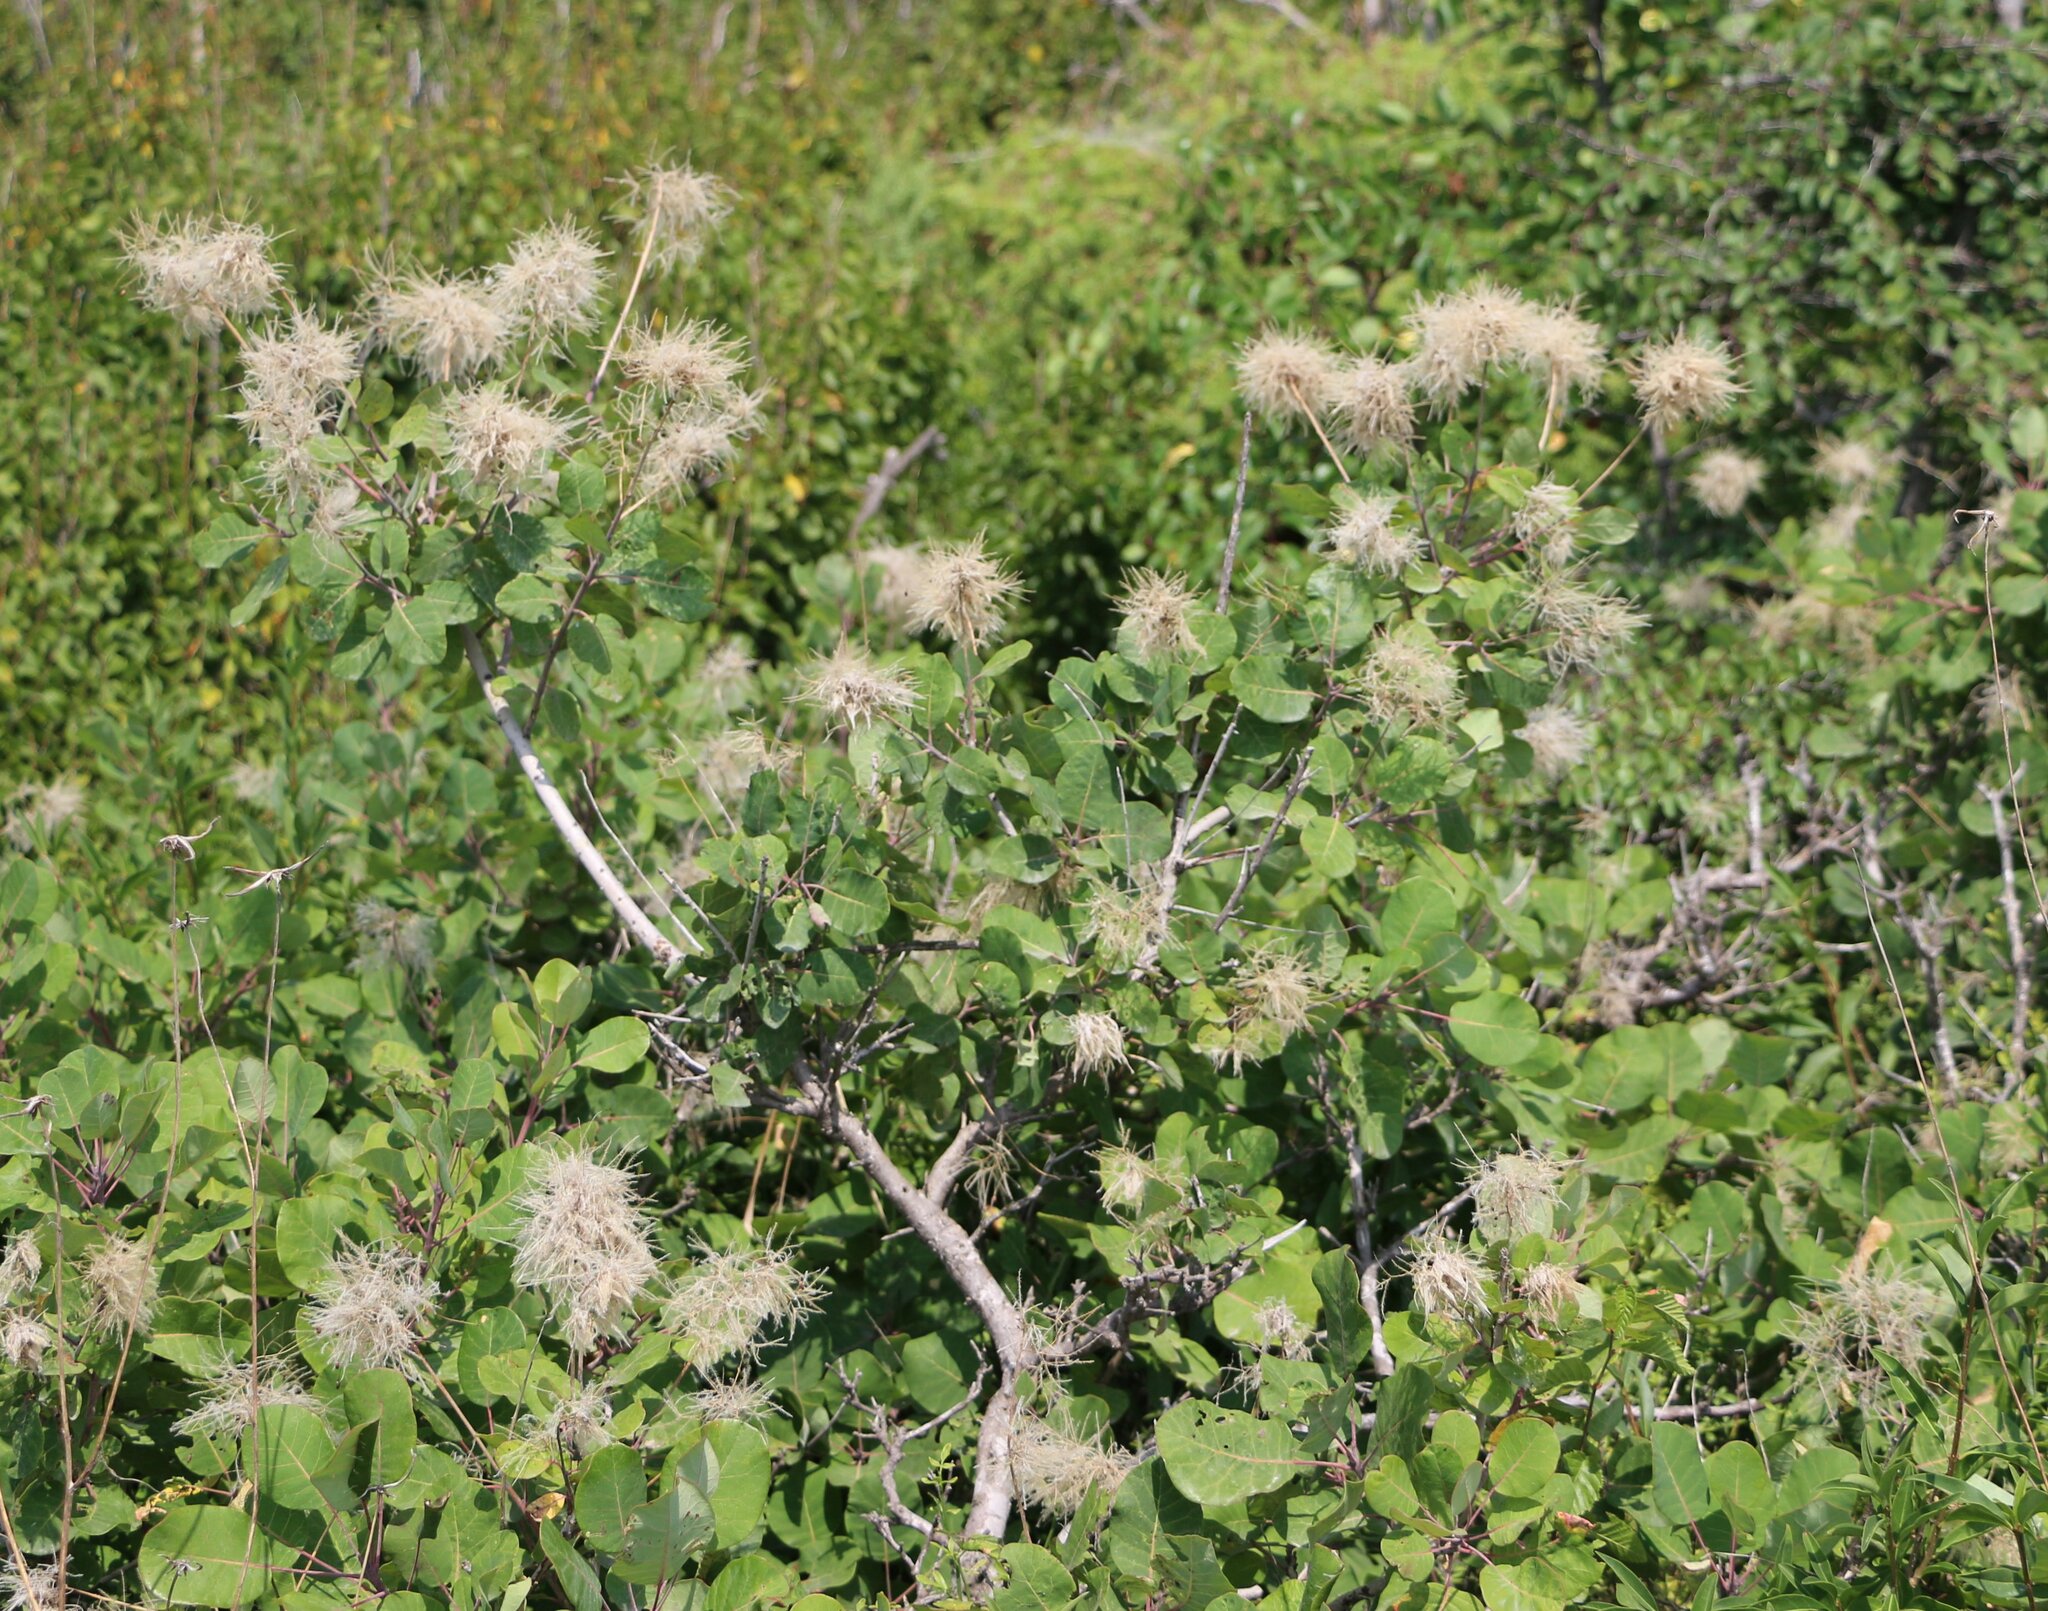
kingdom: Plantae
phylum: Tracheophyta
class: Magnoliopsida
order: Sapindales
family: Anacardiaceae
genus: Cotinus
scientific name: Cotinus coggygria
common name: Smoke-tree
